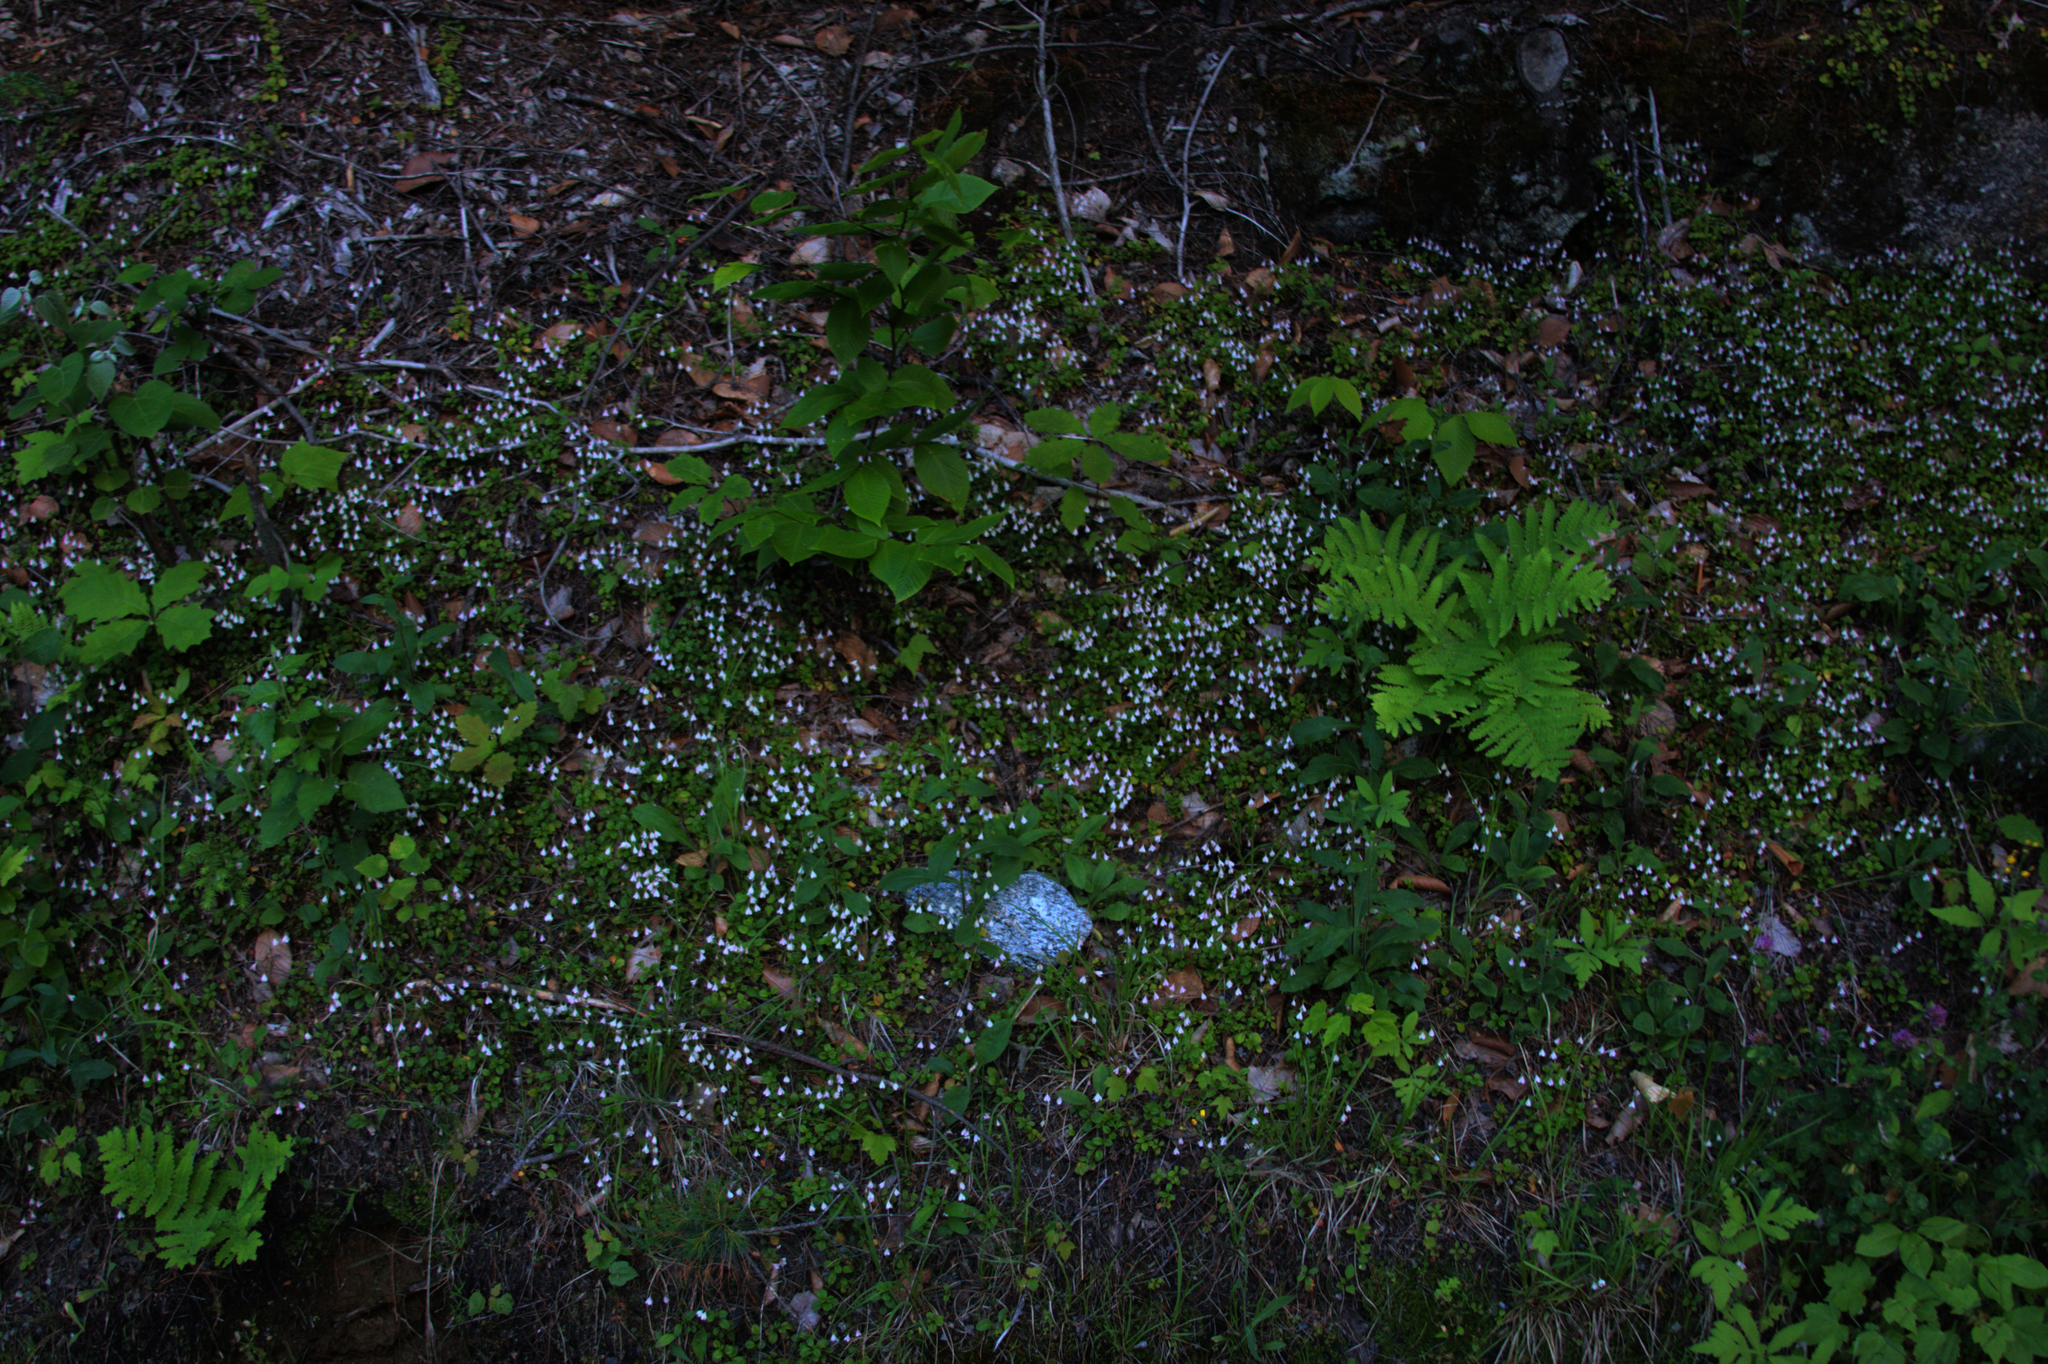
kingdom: Plantae
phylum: Tracheophyta
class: Magnoliopsida
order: Dipsacales
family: Caprifoliaceae
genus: Linnaea
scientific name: Linnaea borealis
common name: Twinflower
